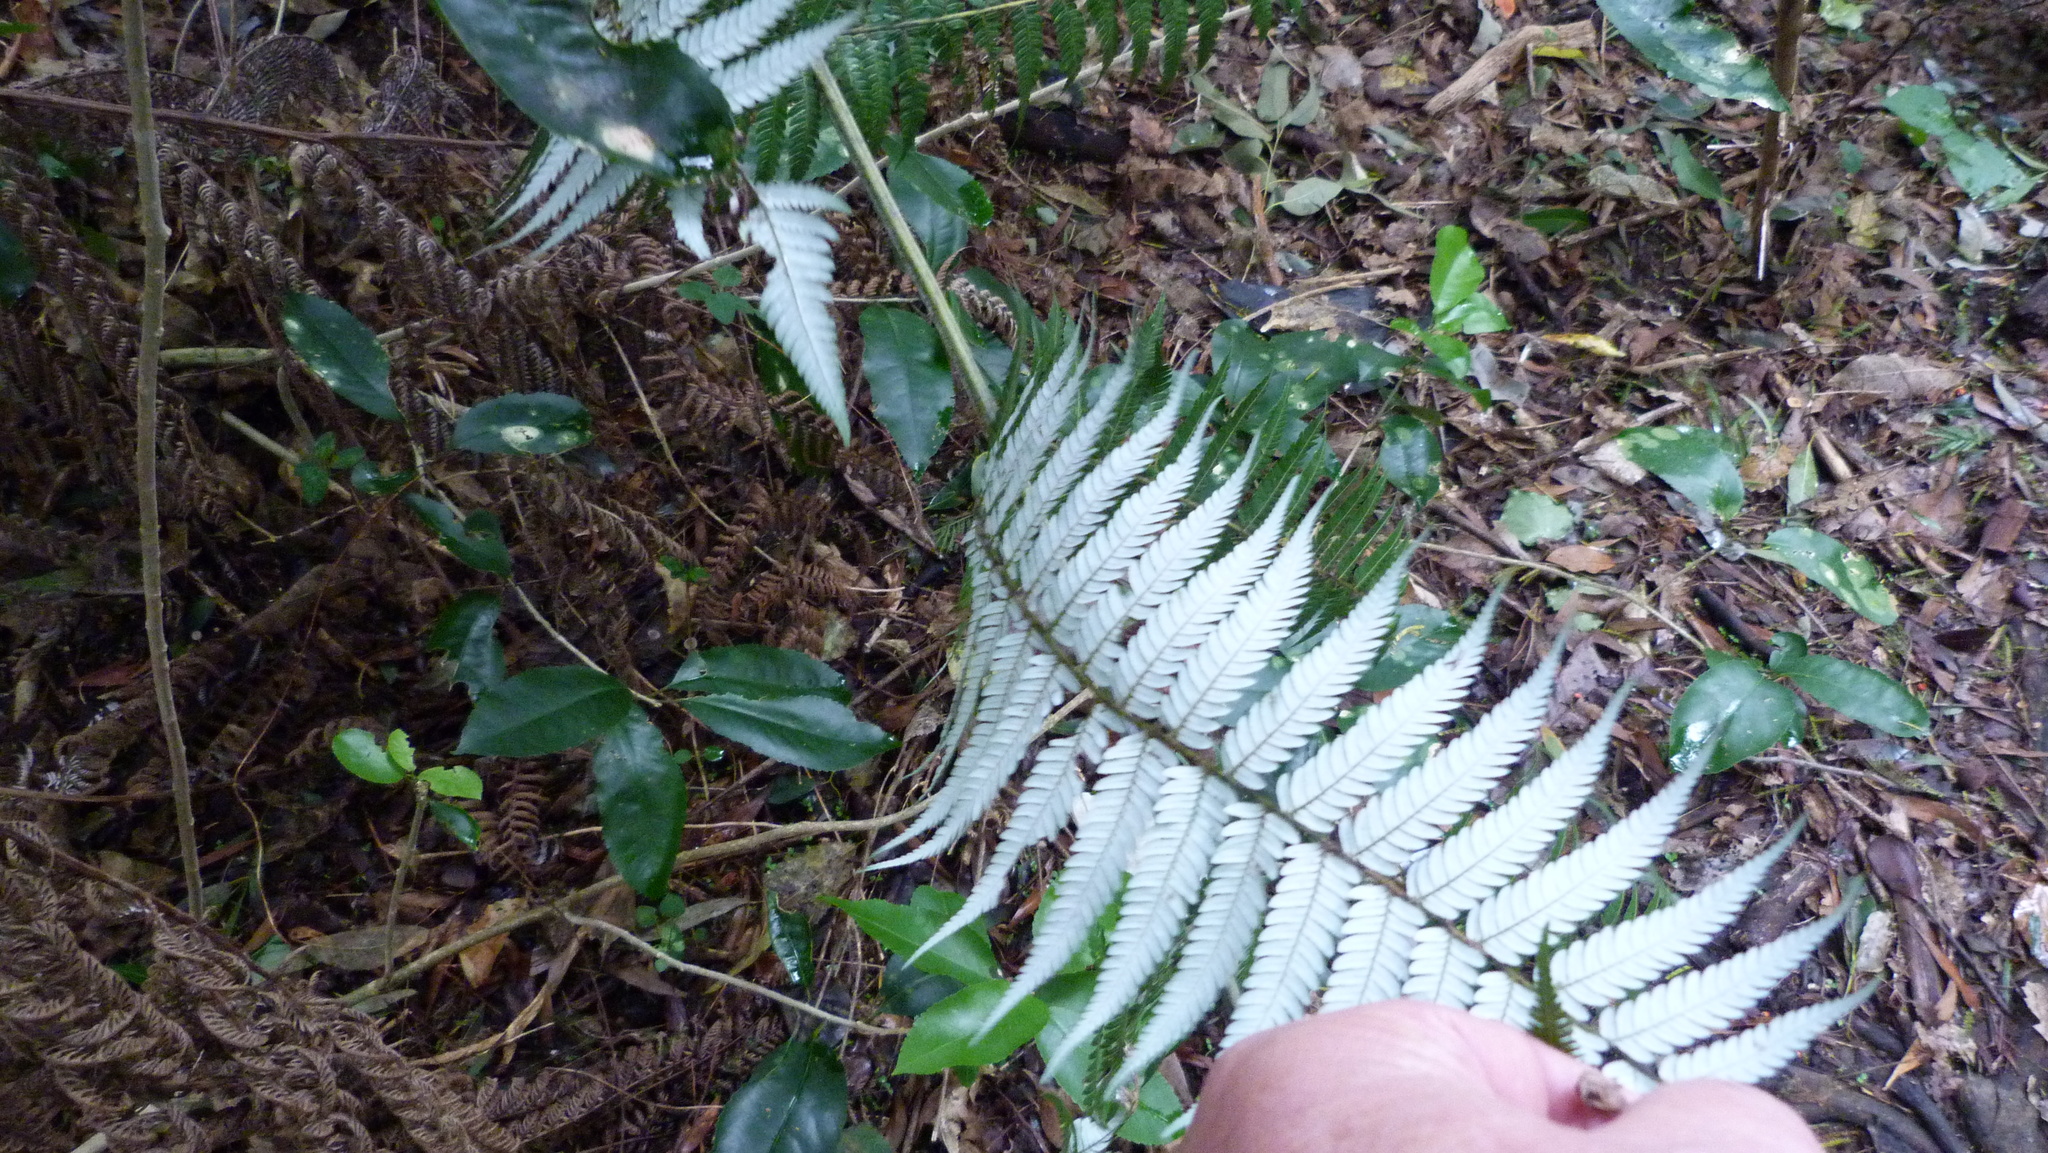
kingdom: Plantae
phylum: Tracheophyta
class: Polypodiopsida
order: Cyatheales
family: Cyatheaceae
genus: Alsophila
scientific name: Alsophila dealbata
